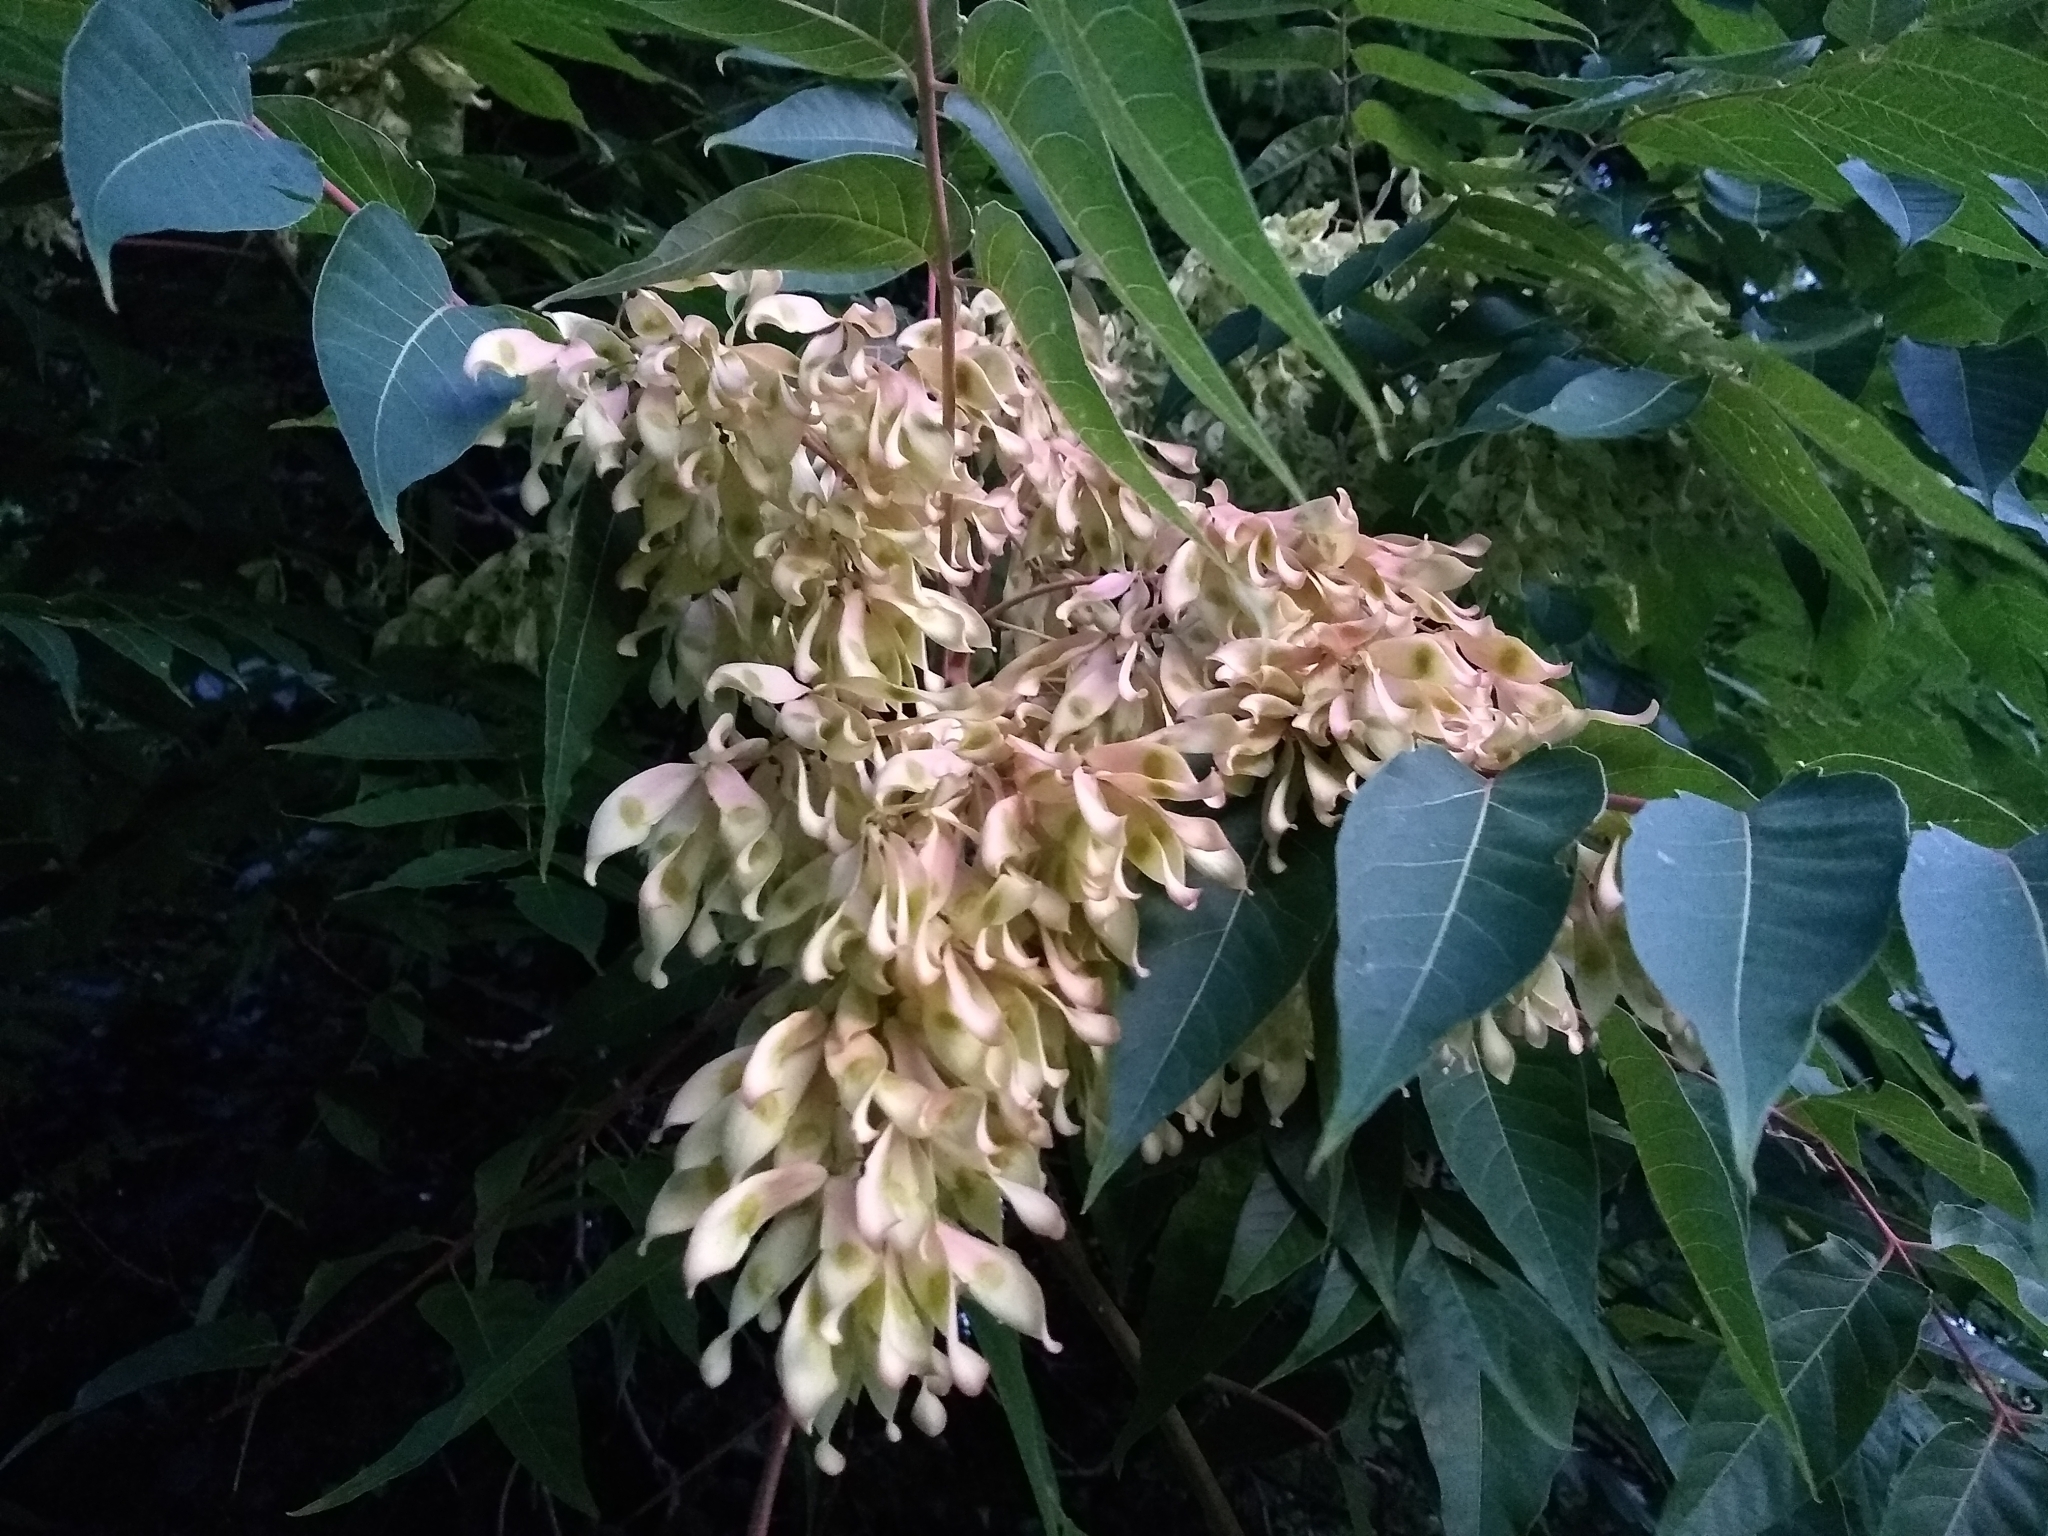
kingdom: Plantae
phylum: Tracheophyta
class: Magnoliopsida
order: Sapindales
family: Simaroubaceae
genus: Ailanthus
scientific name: Ailanthus altissima
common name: Tree-of-heaven
